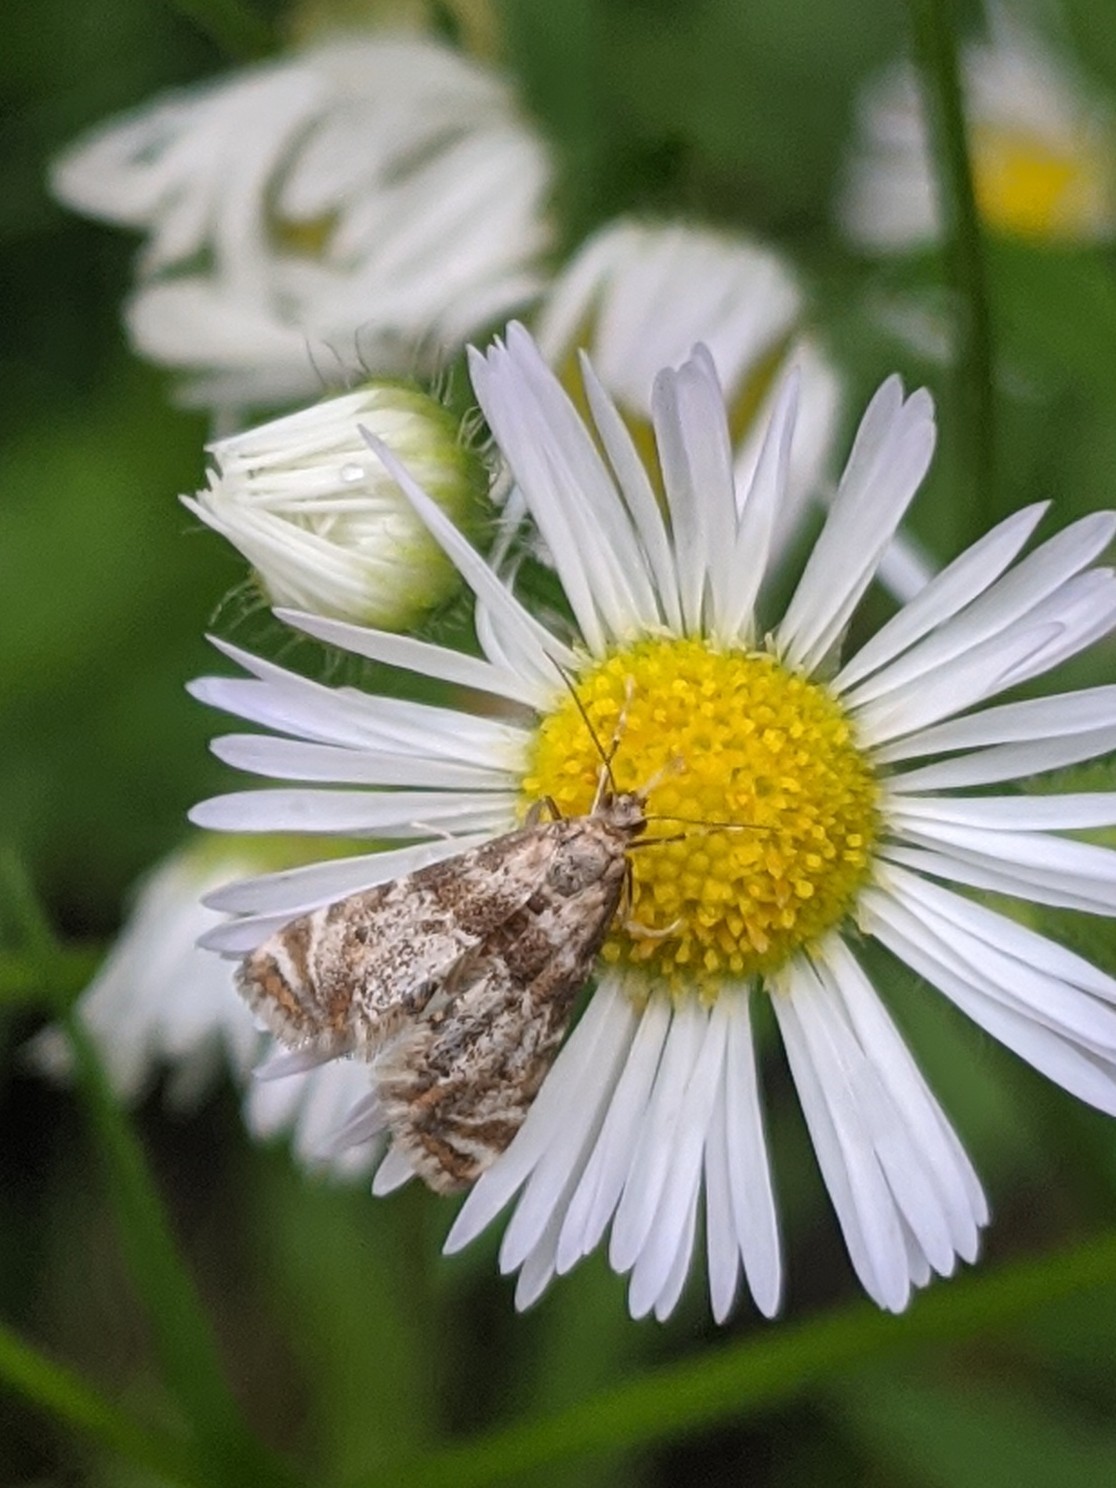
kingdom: Animalia
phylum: Arthropoda
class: Insecta
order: Lepidoptera
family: Crambidae
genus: Petrophila
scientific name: Petrophila fulicalis
